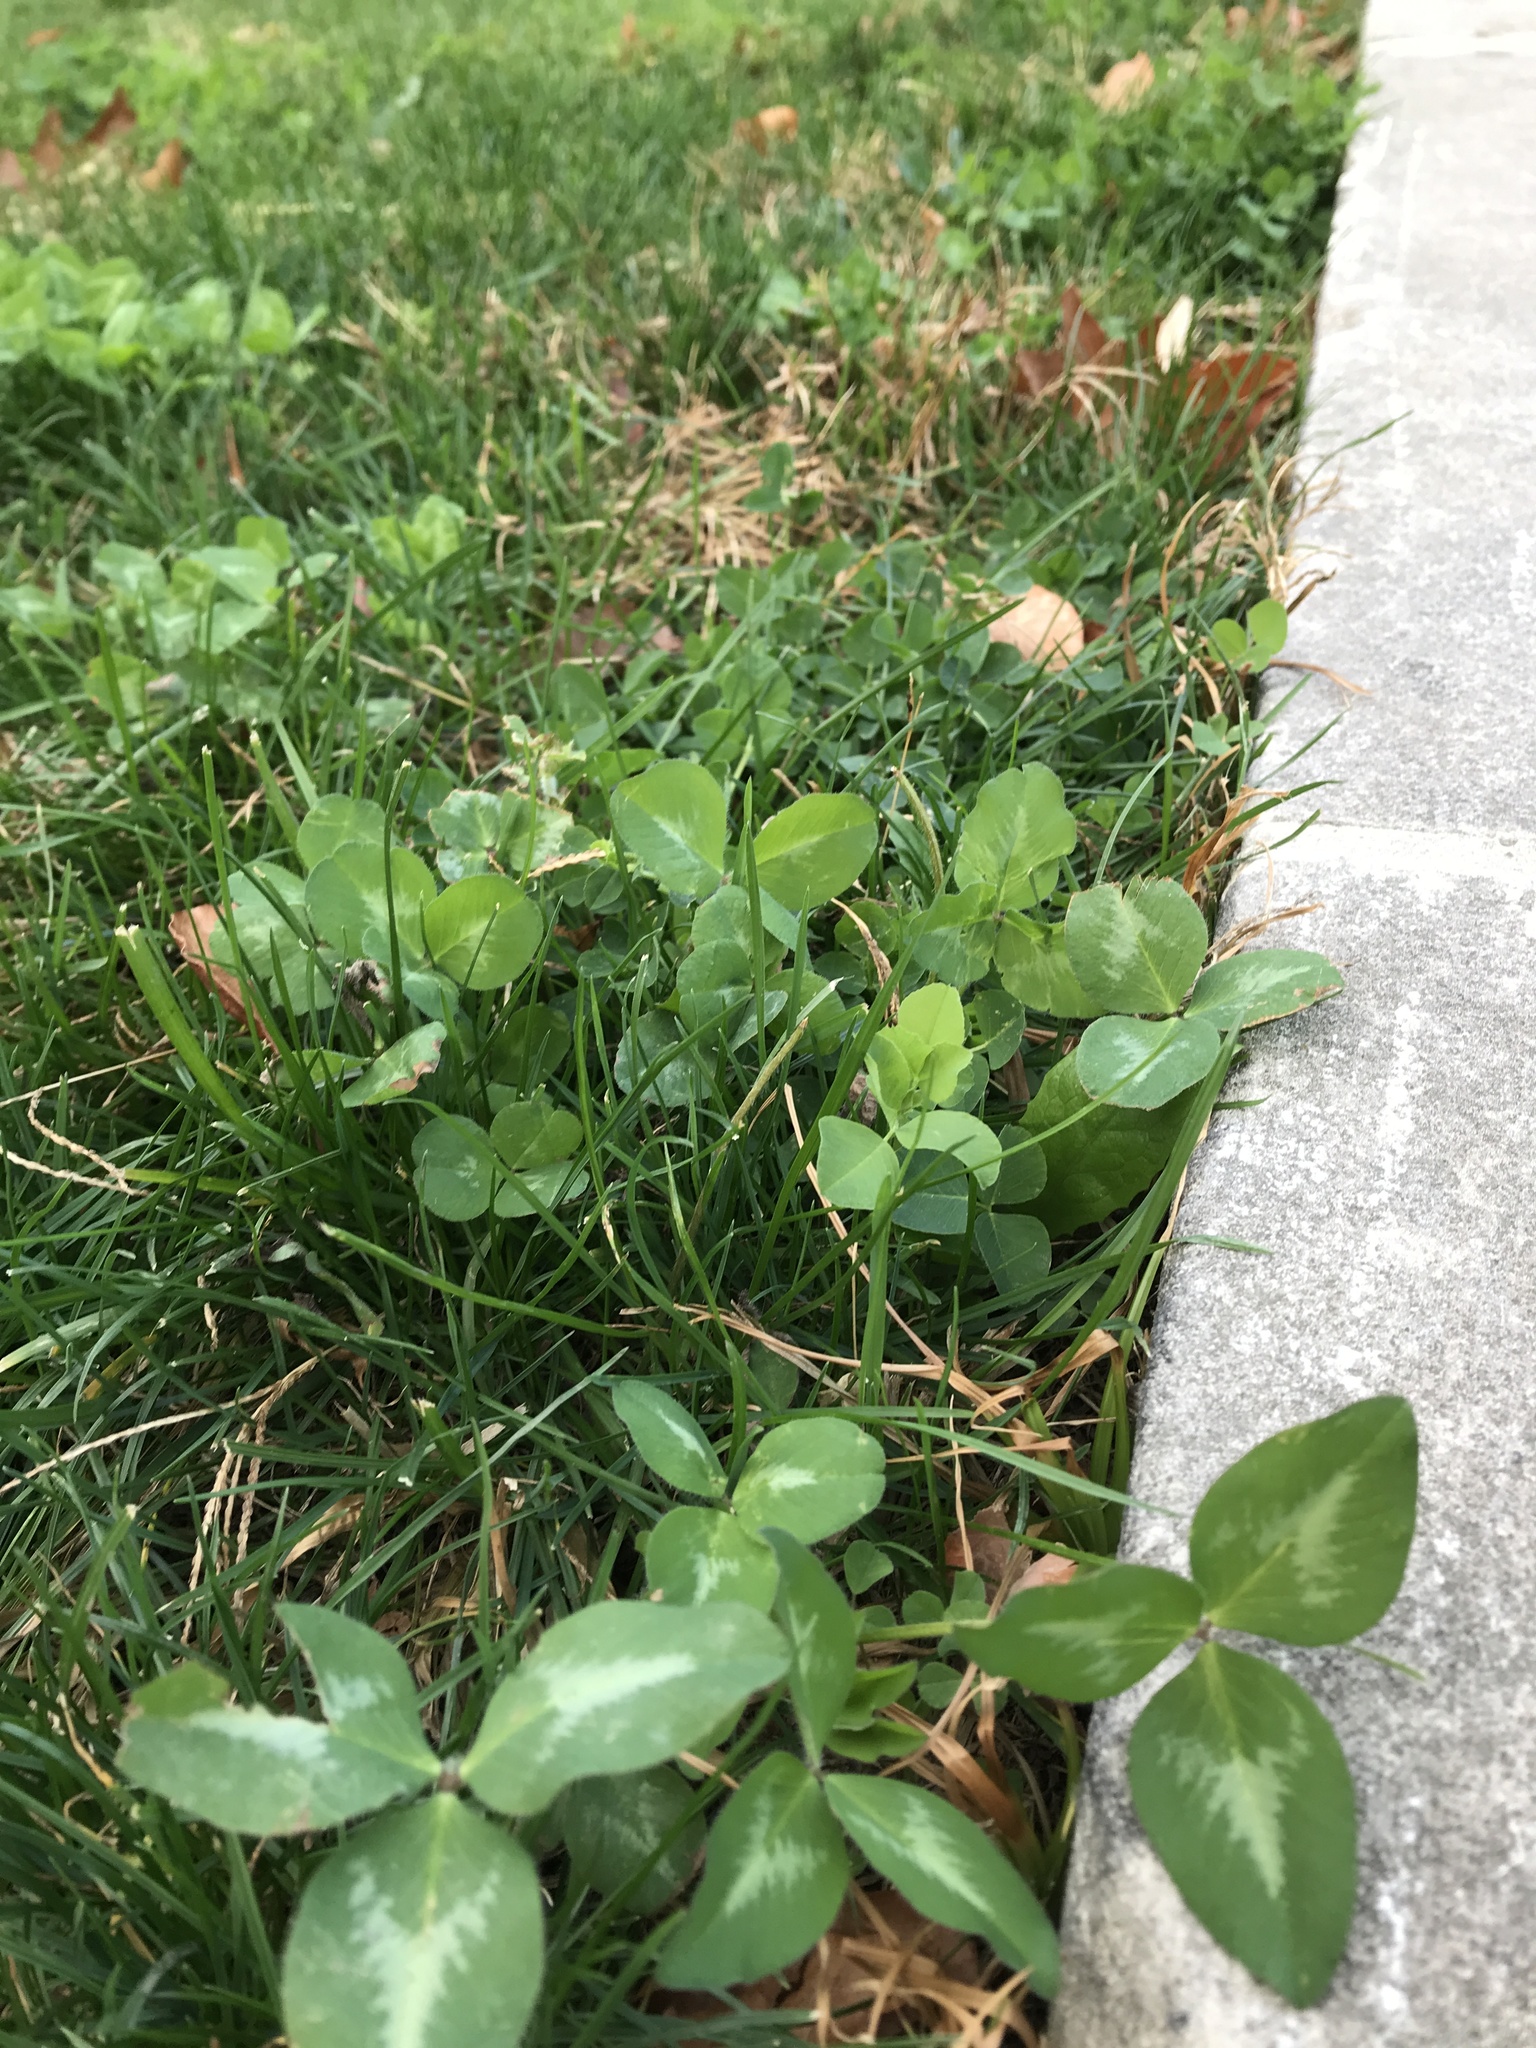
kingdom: Plantae
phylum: Tracheophyta
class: Magnoliopsida
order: Fabales
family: Fabaceae
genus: Trifolium
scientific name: Trifolium pratense
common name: Red clover
